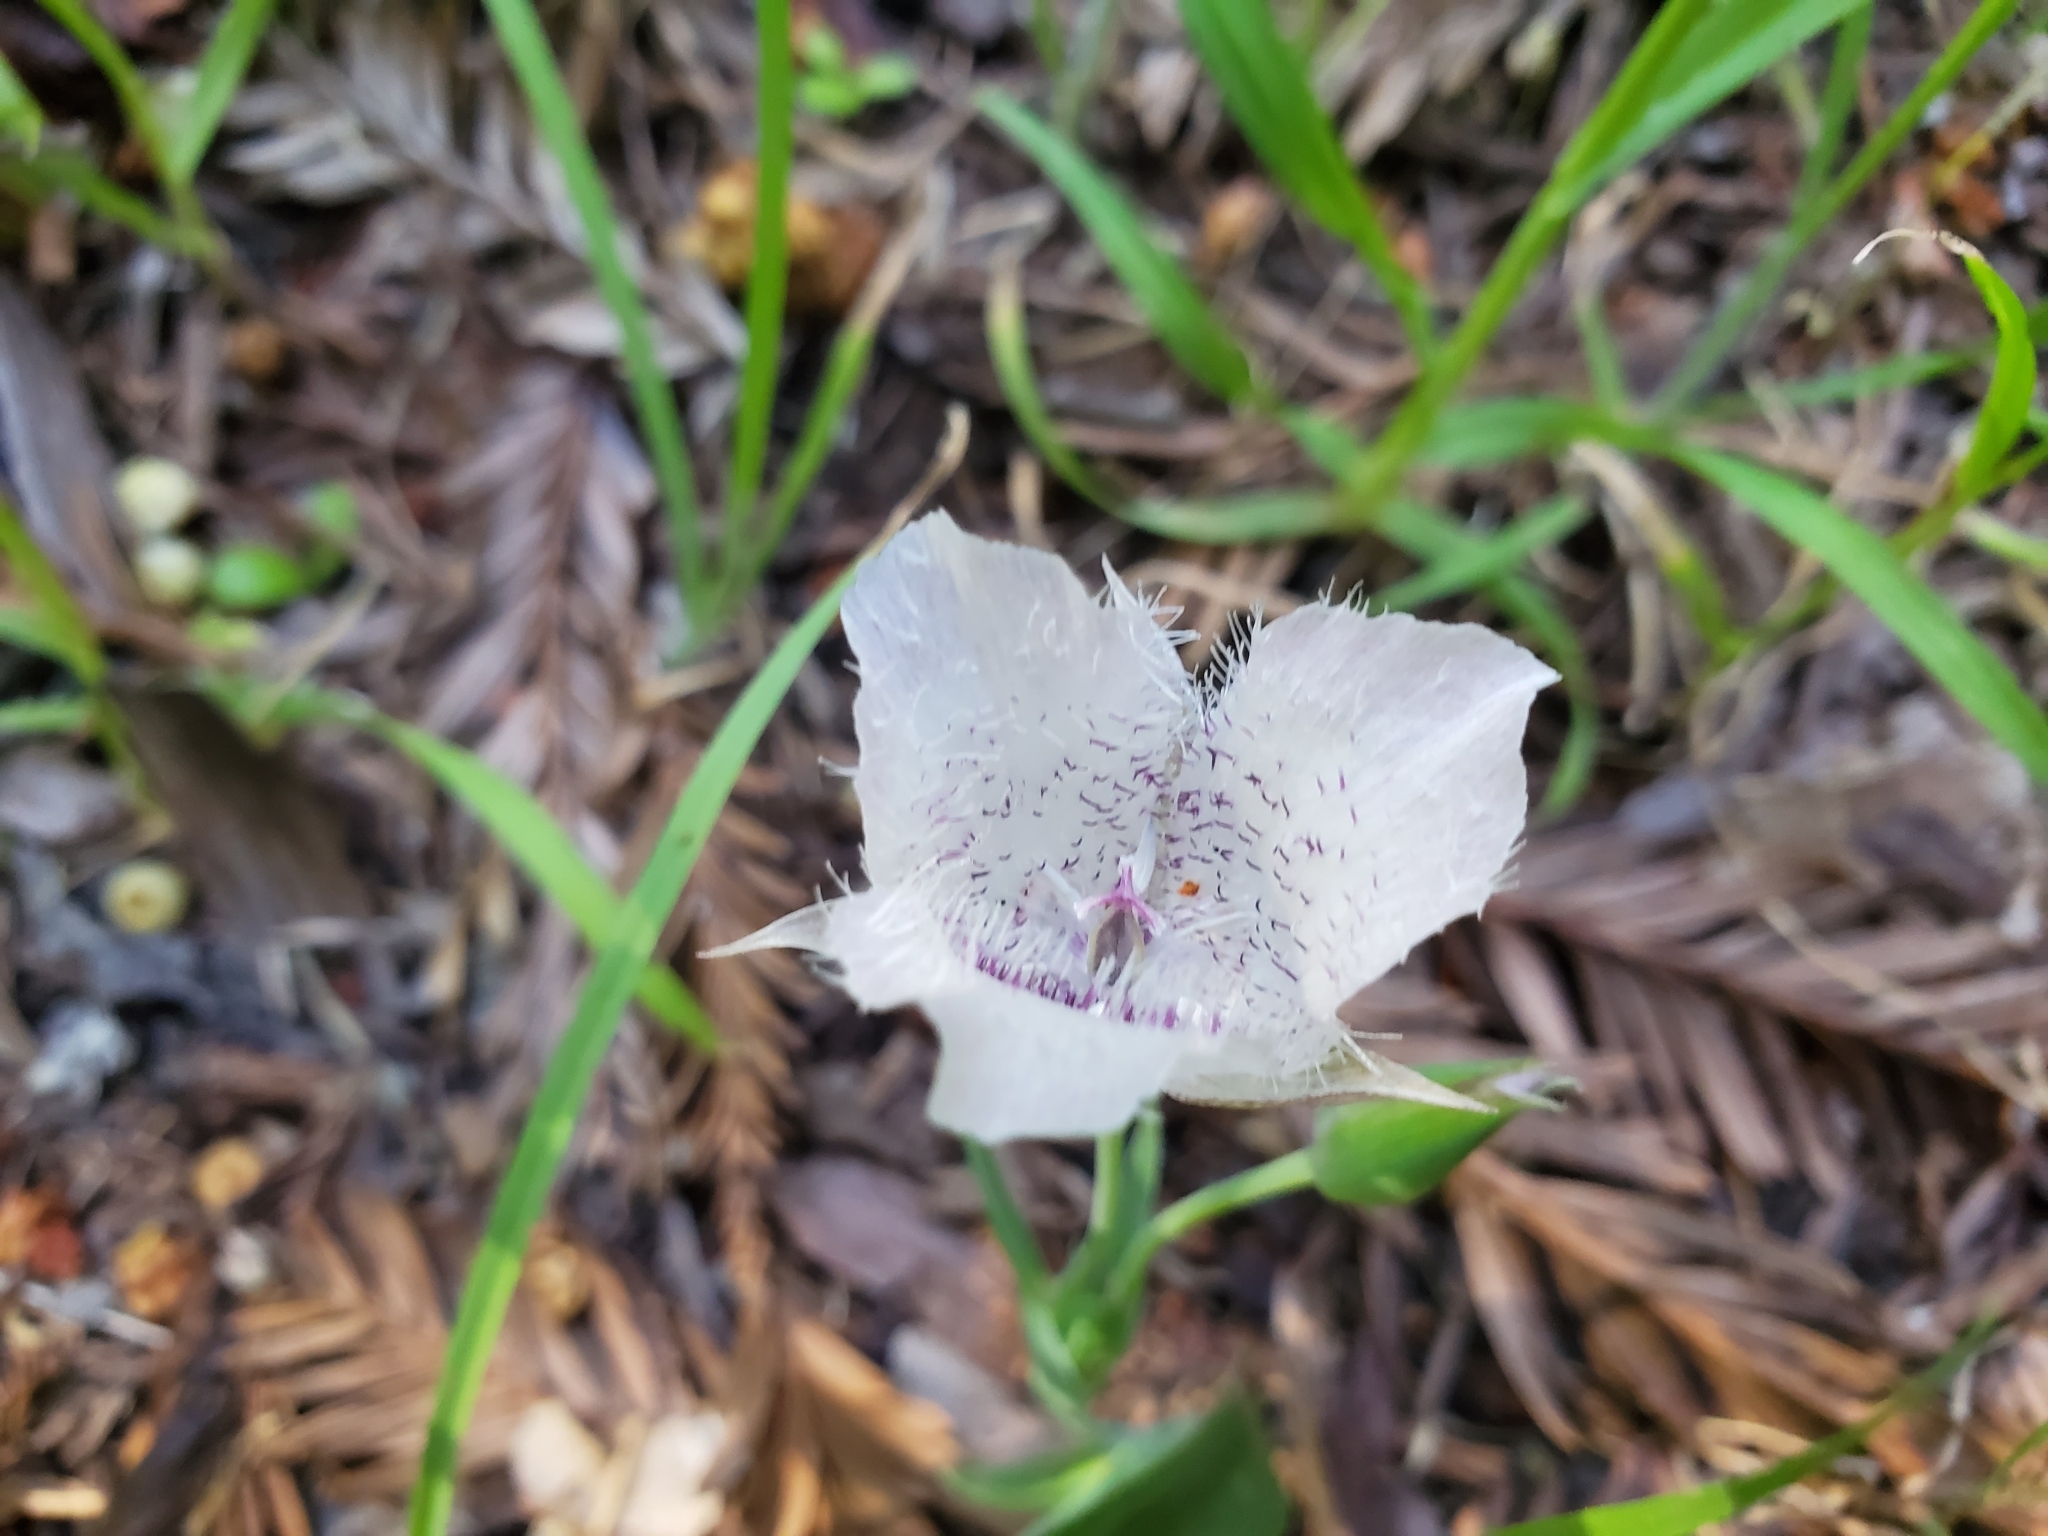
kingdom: Plantae
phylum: Tracheophyta
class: Liliopsida
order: Liliales
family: Liliaceae
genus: Calochortus
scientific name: Calochortus tolmiei
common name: Pussy-ears
